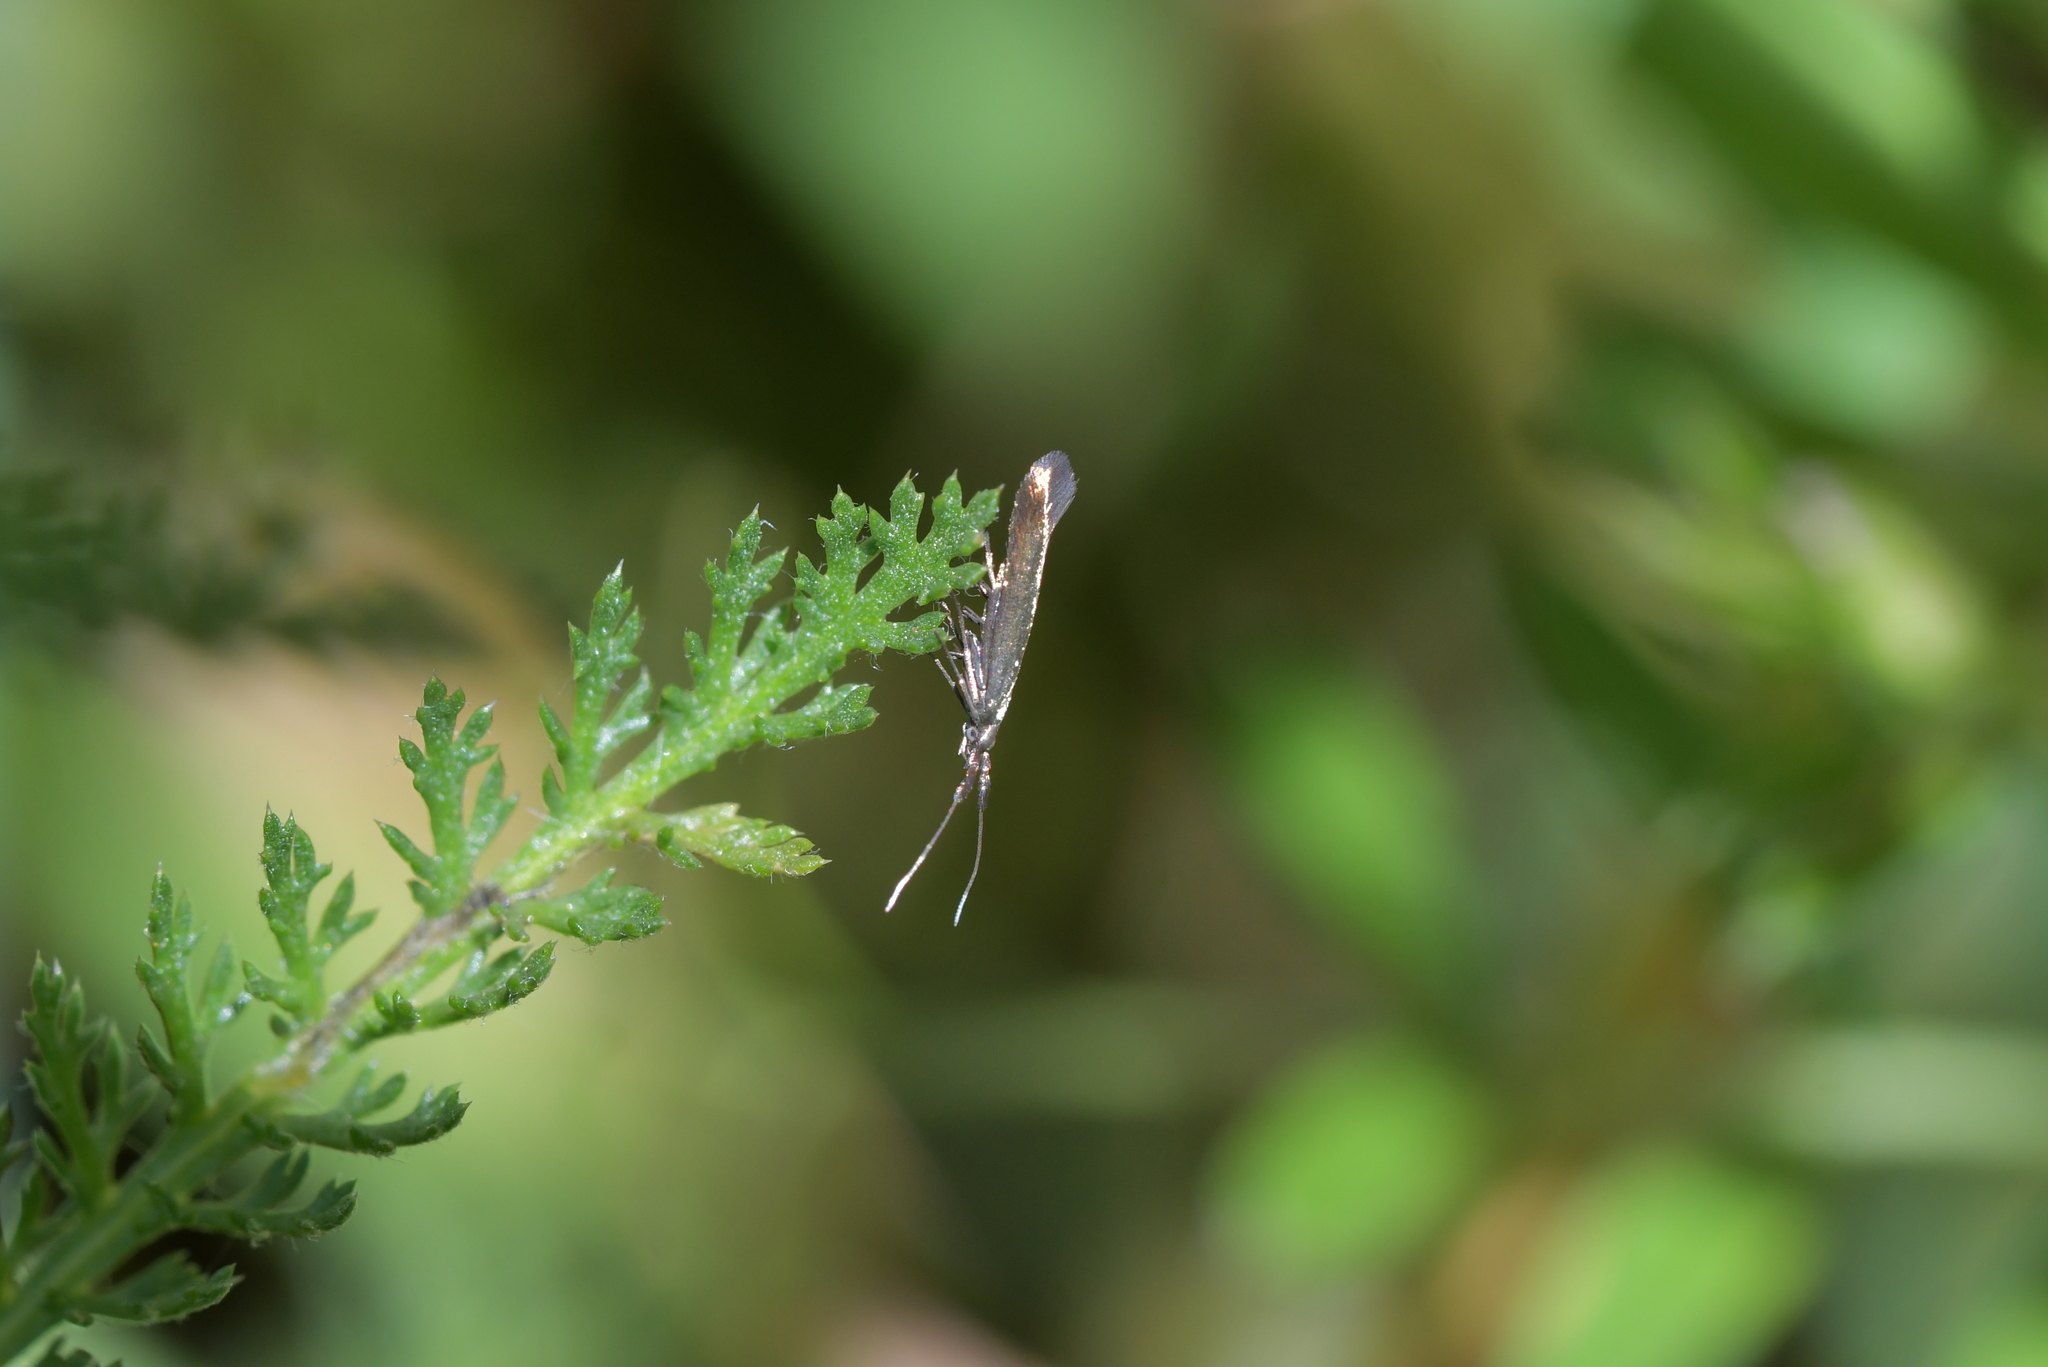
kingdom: Animalia
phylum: Arthropoda
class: Insecta
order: Lepidoptera
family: Coleophoridae
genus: Coleophora
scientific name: Coleophora deauratella
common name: Red-clover case-bearer
